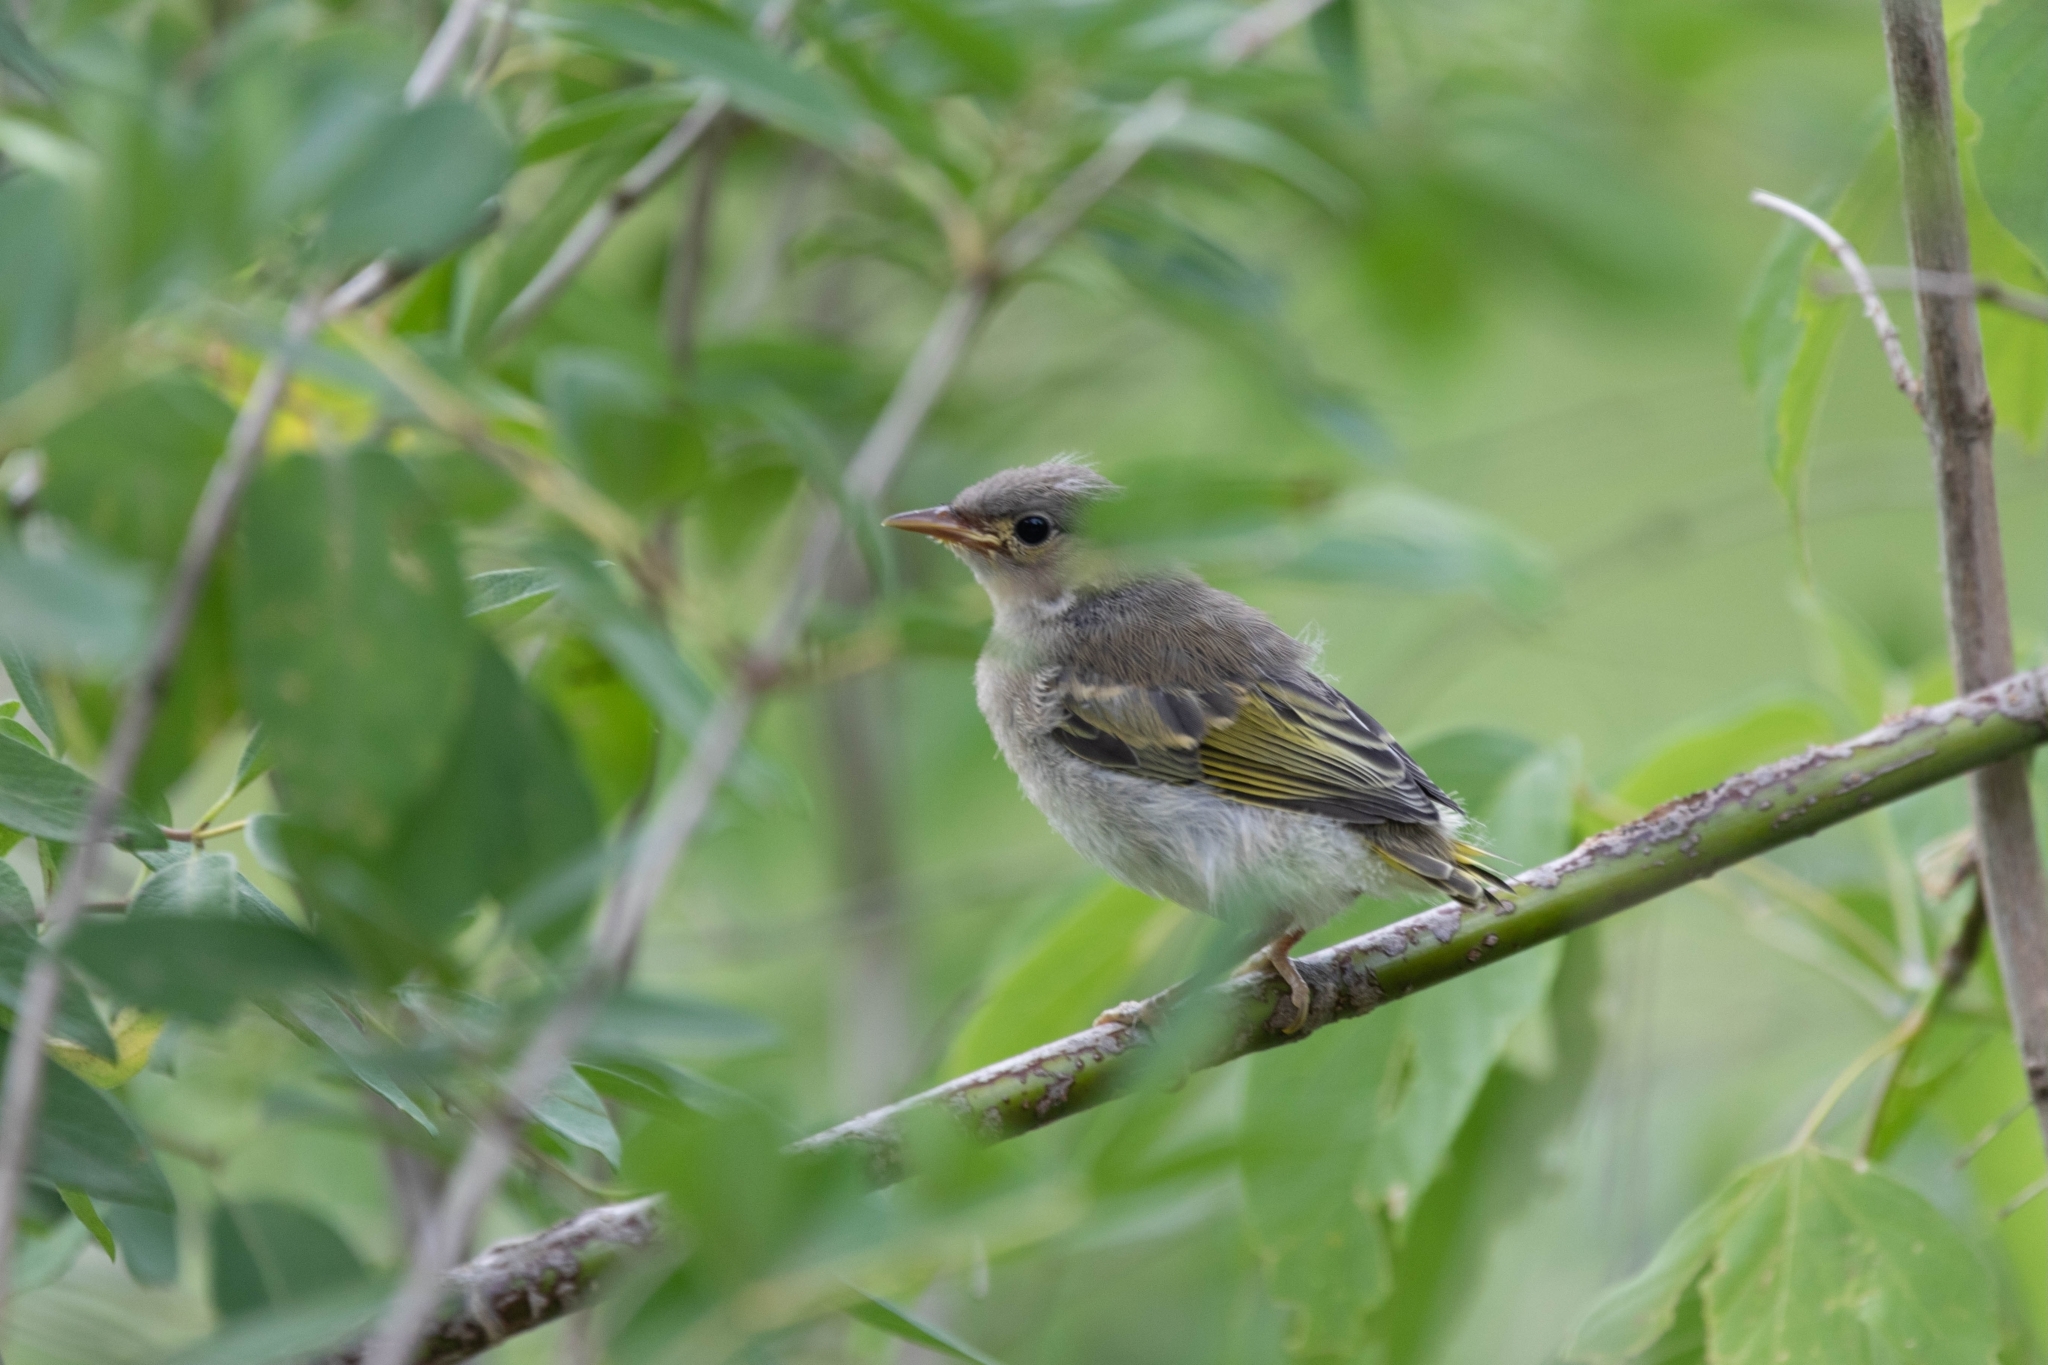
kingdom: Animalia
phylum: Chordata
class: Aves
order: Passeriformes
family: Parulidae
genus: Setophaga
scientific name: Setophaga petechia
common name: Yellow warbler
